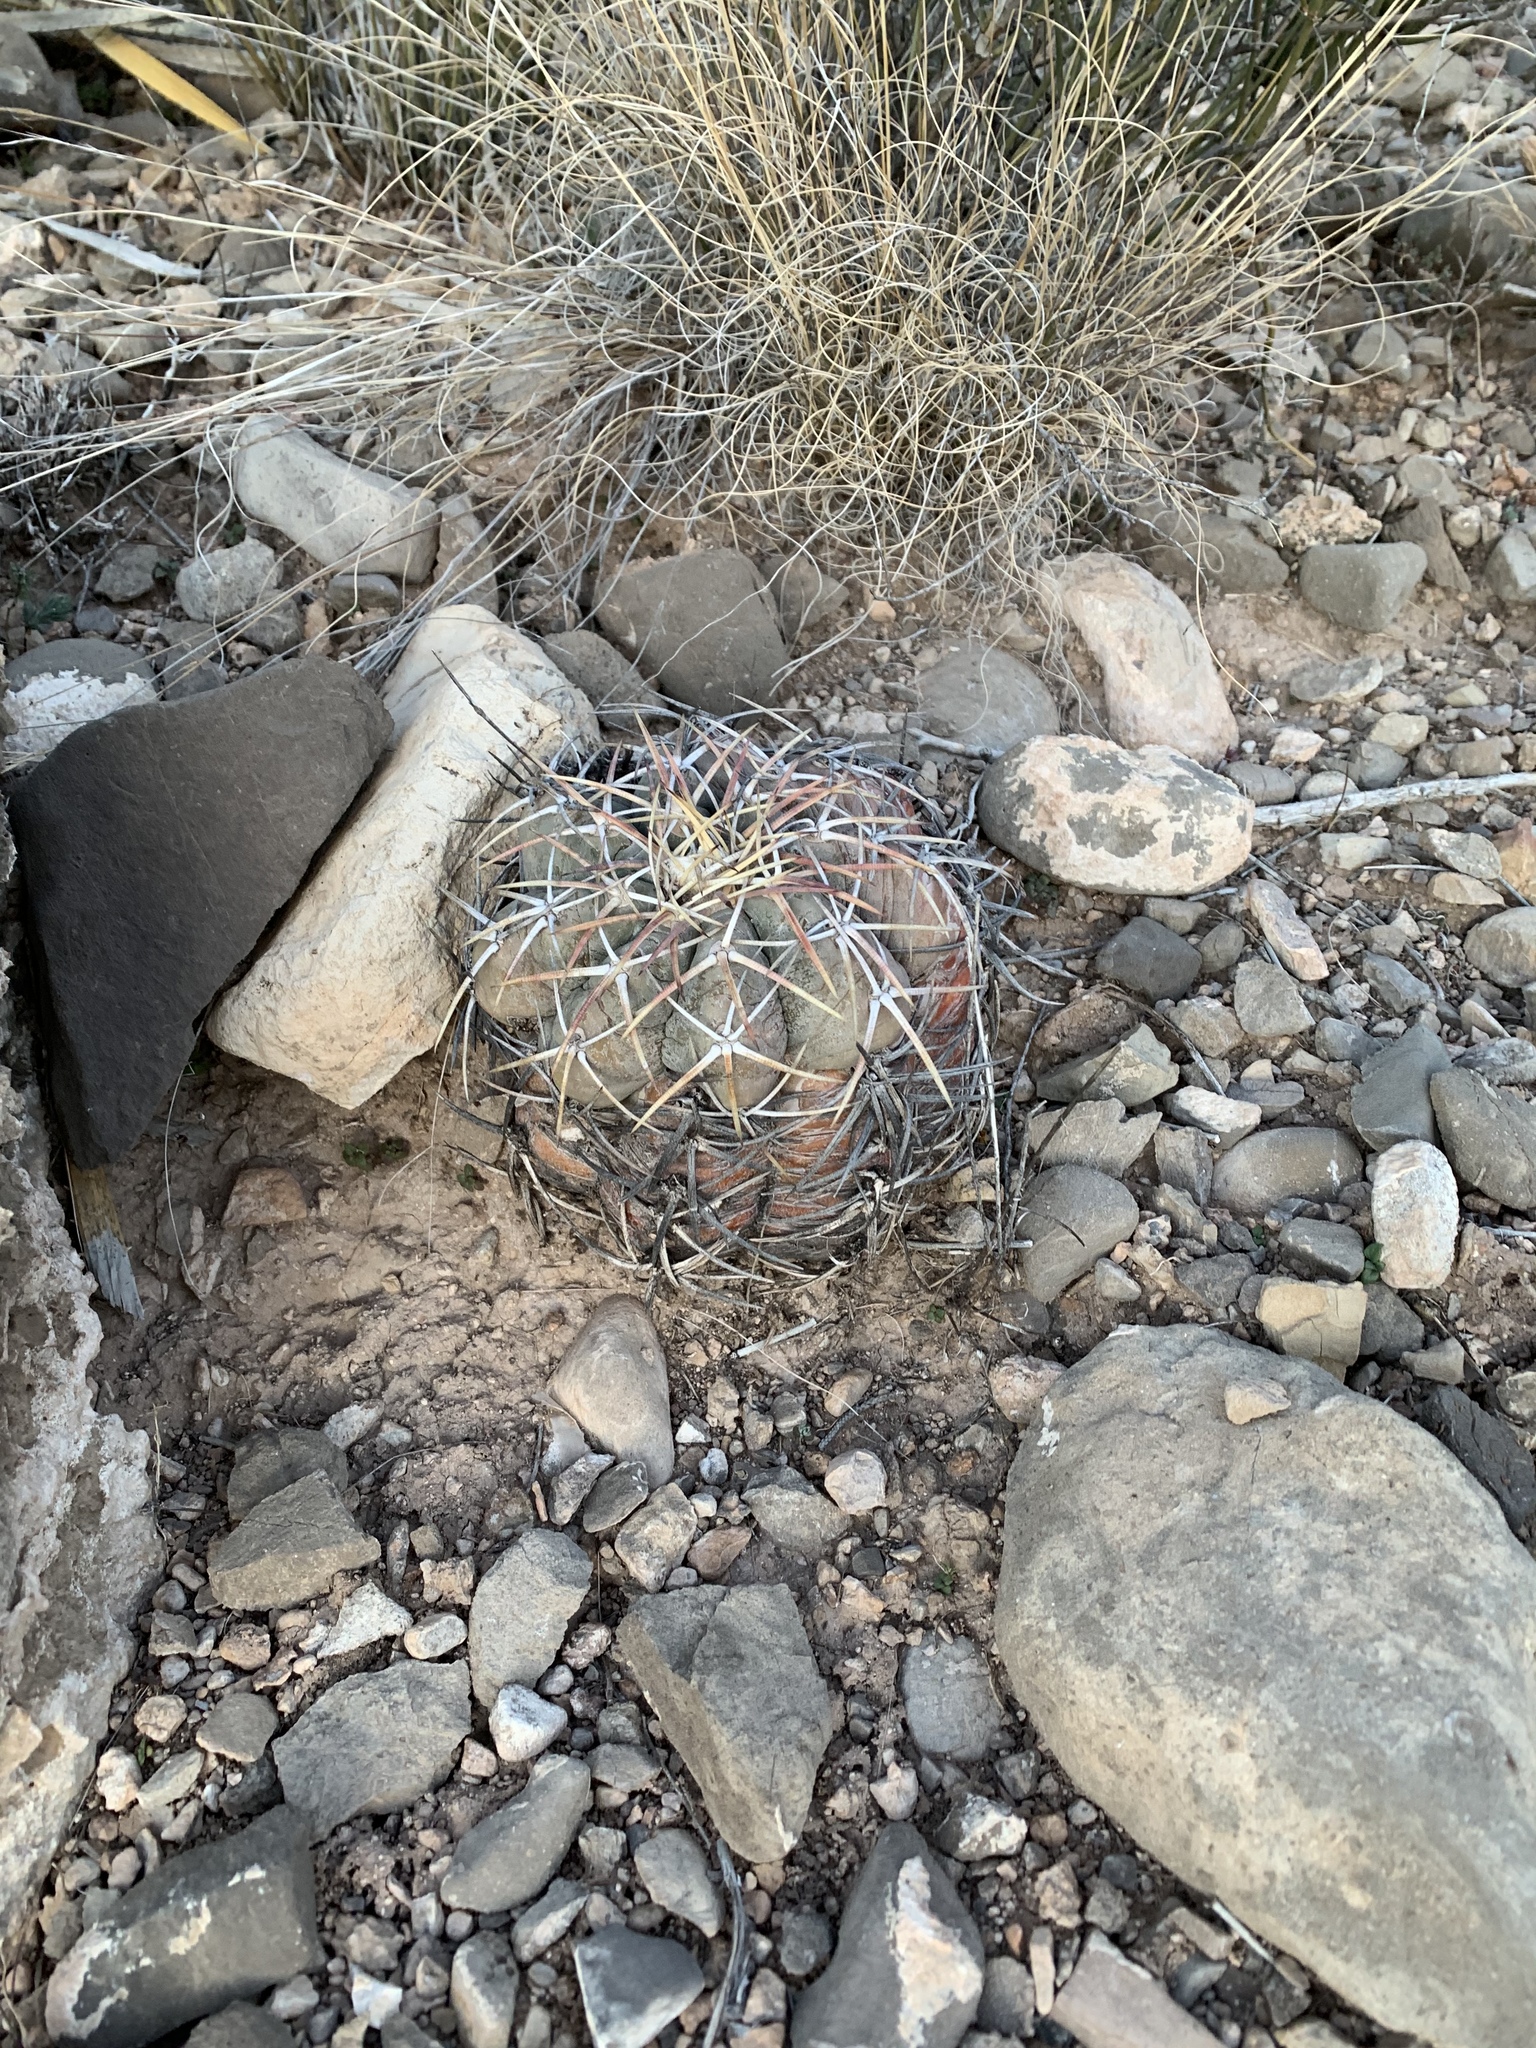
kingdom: Plantae
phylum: Tracheophyta
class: Magnoliopsida
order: Caryophyllales
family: Cactaceae
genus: Echinocactus
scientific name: Echinocactus horizonthalonius
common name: Devilshead
